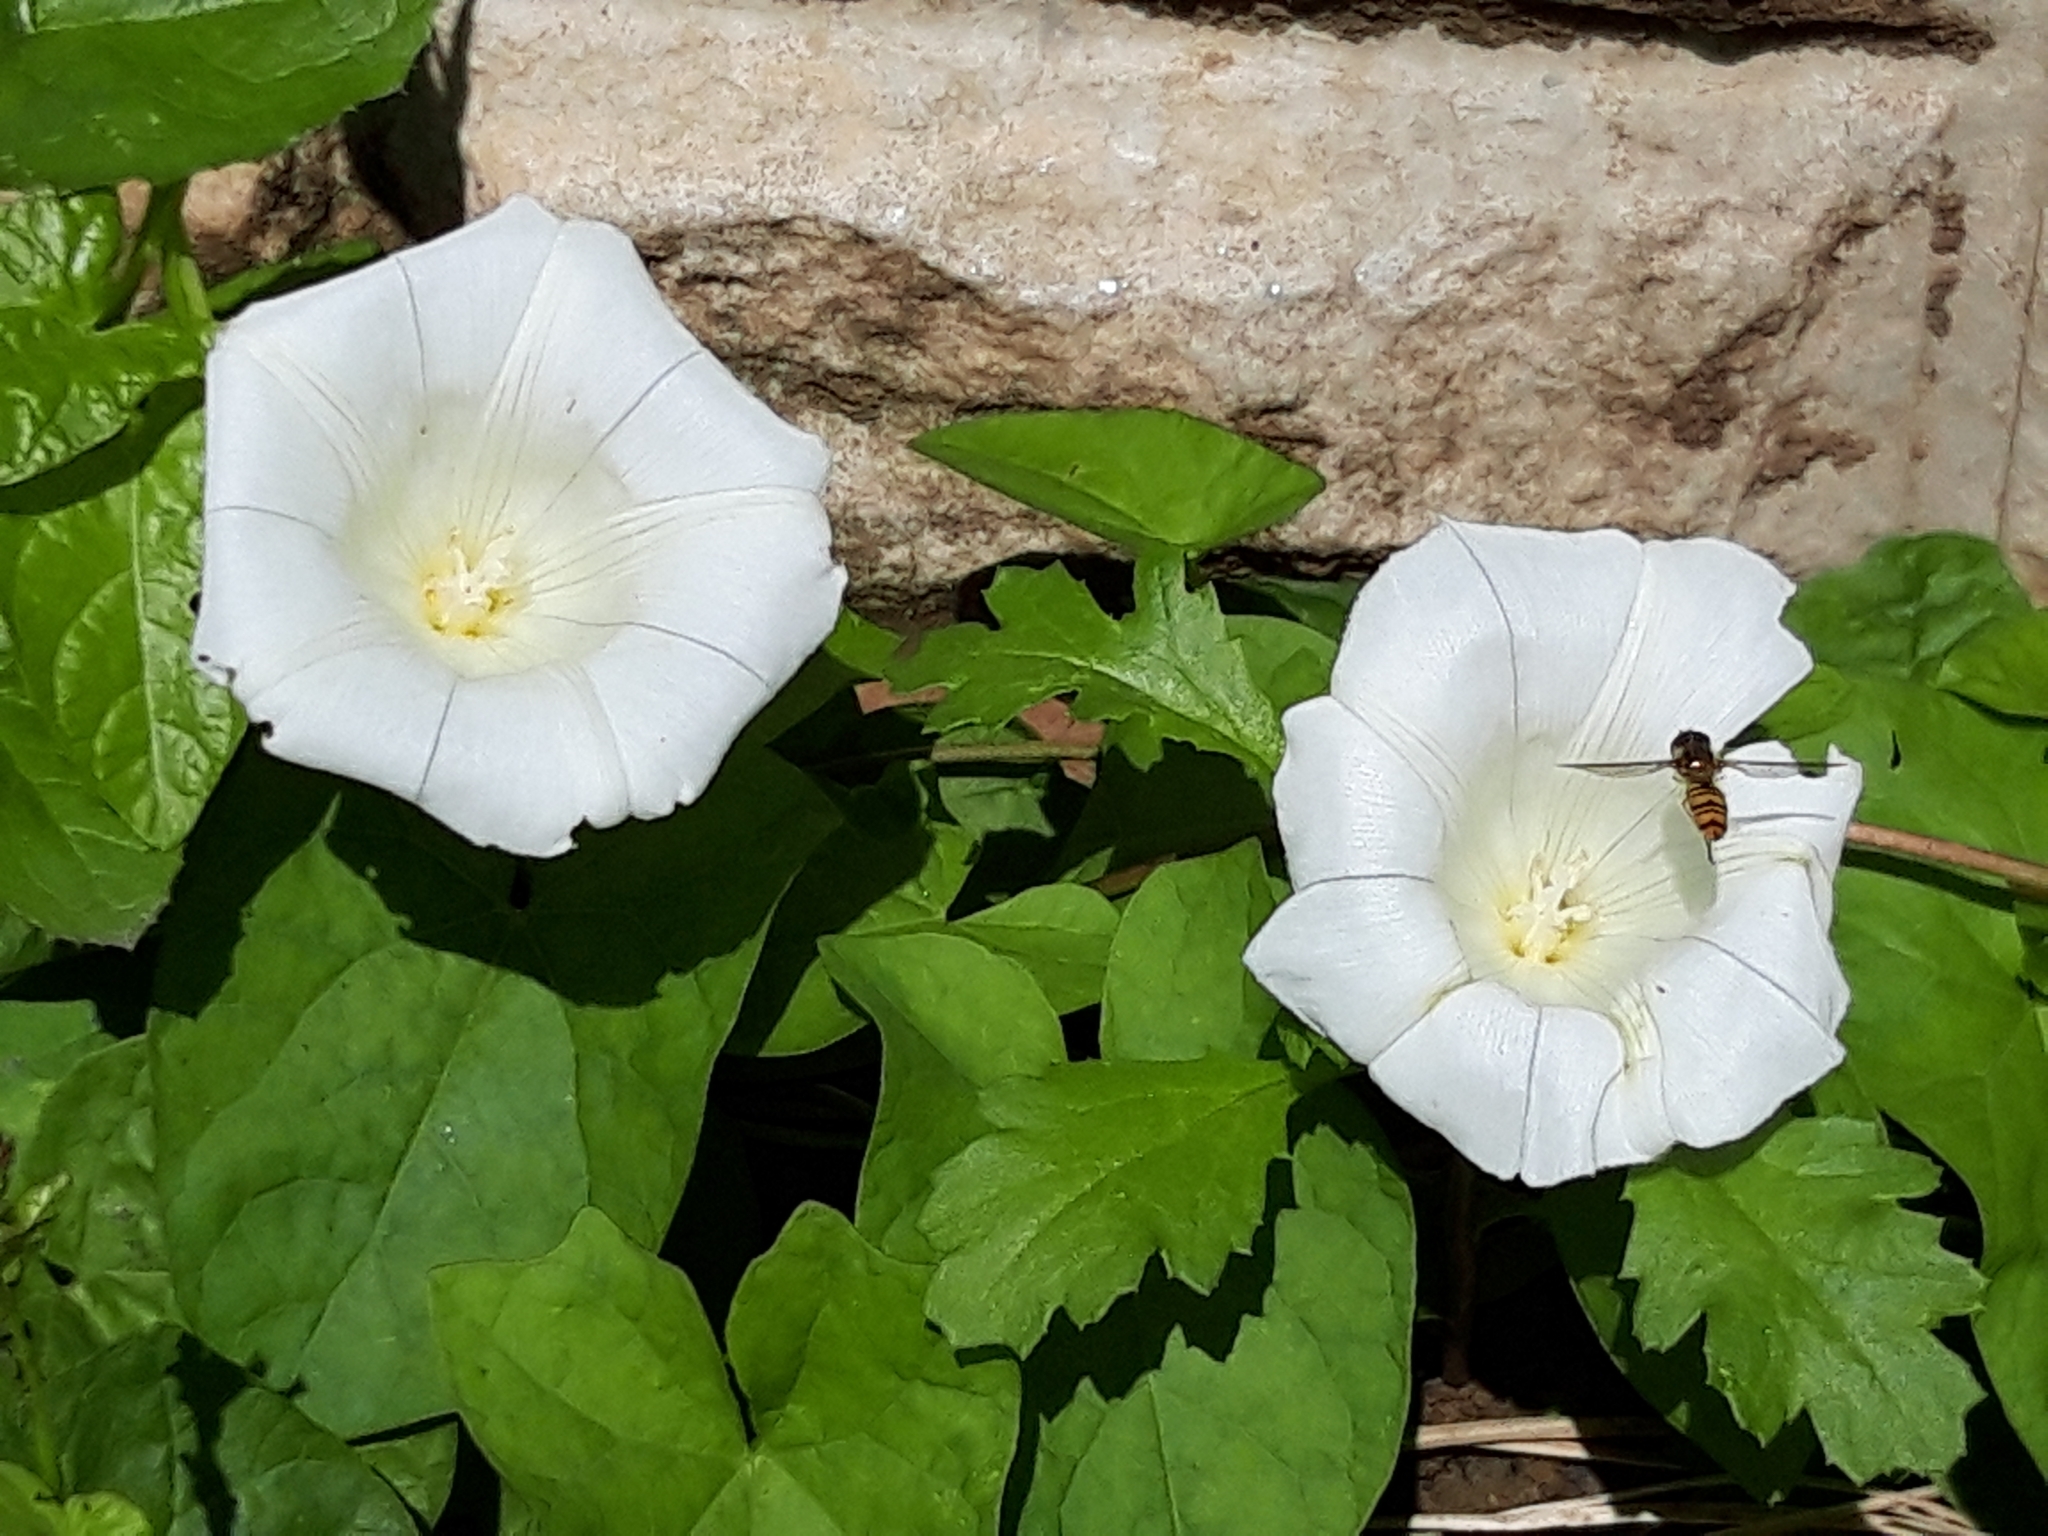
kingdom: Plantae
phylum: Tracheophyta
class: Magnoliopsida
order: Solanales
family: Convolvulaceae
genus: Calystegia
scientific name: Calystegia
